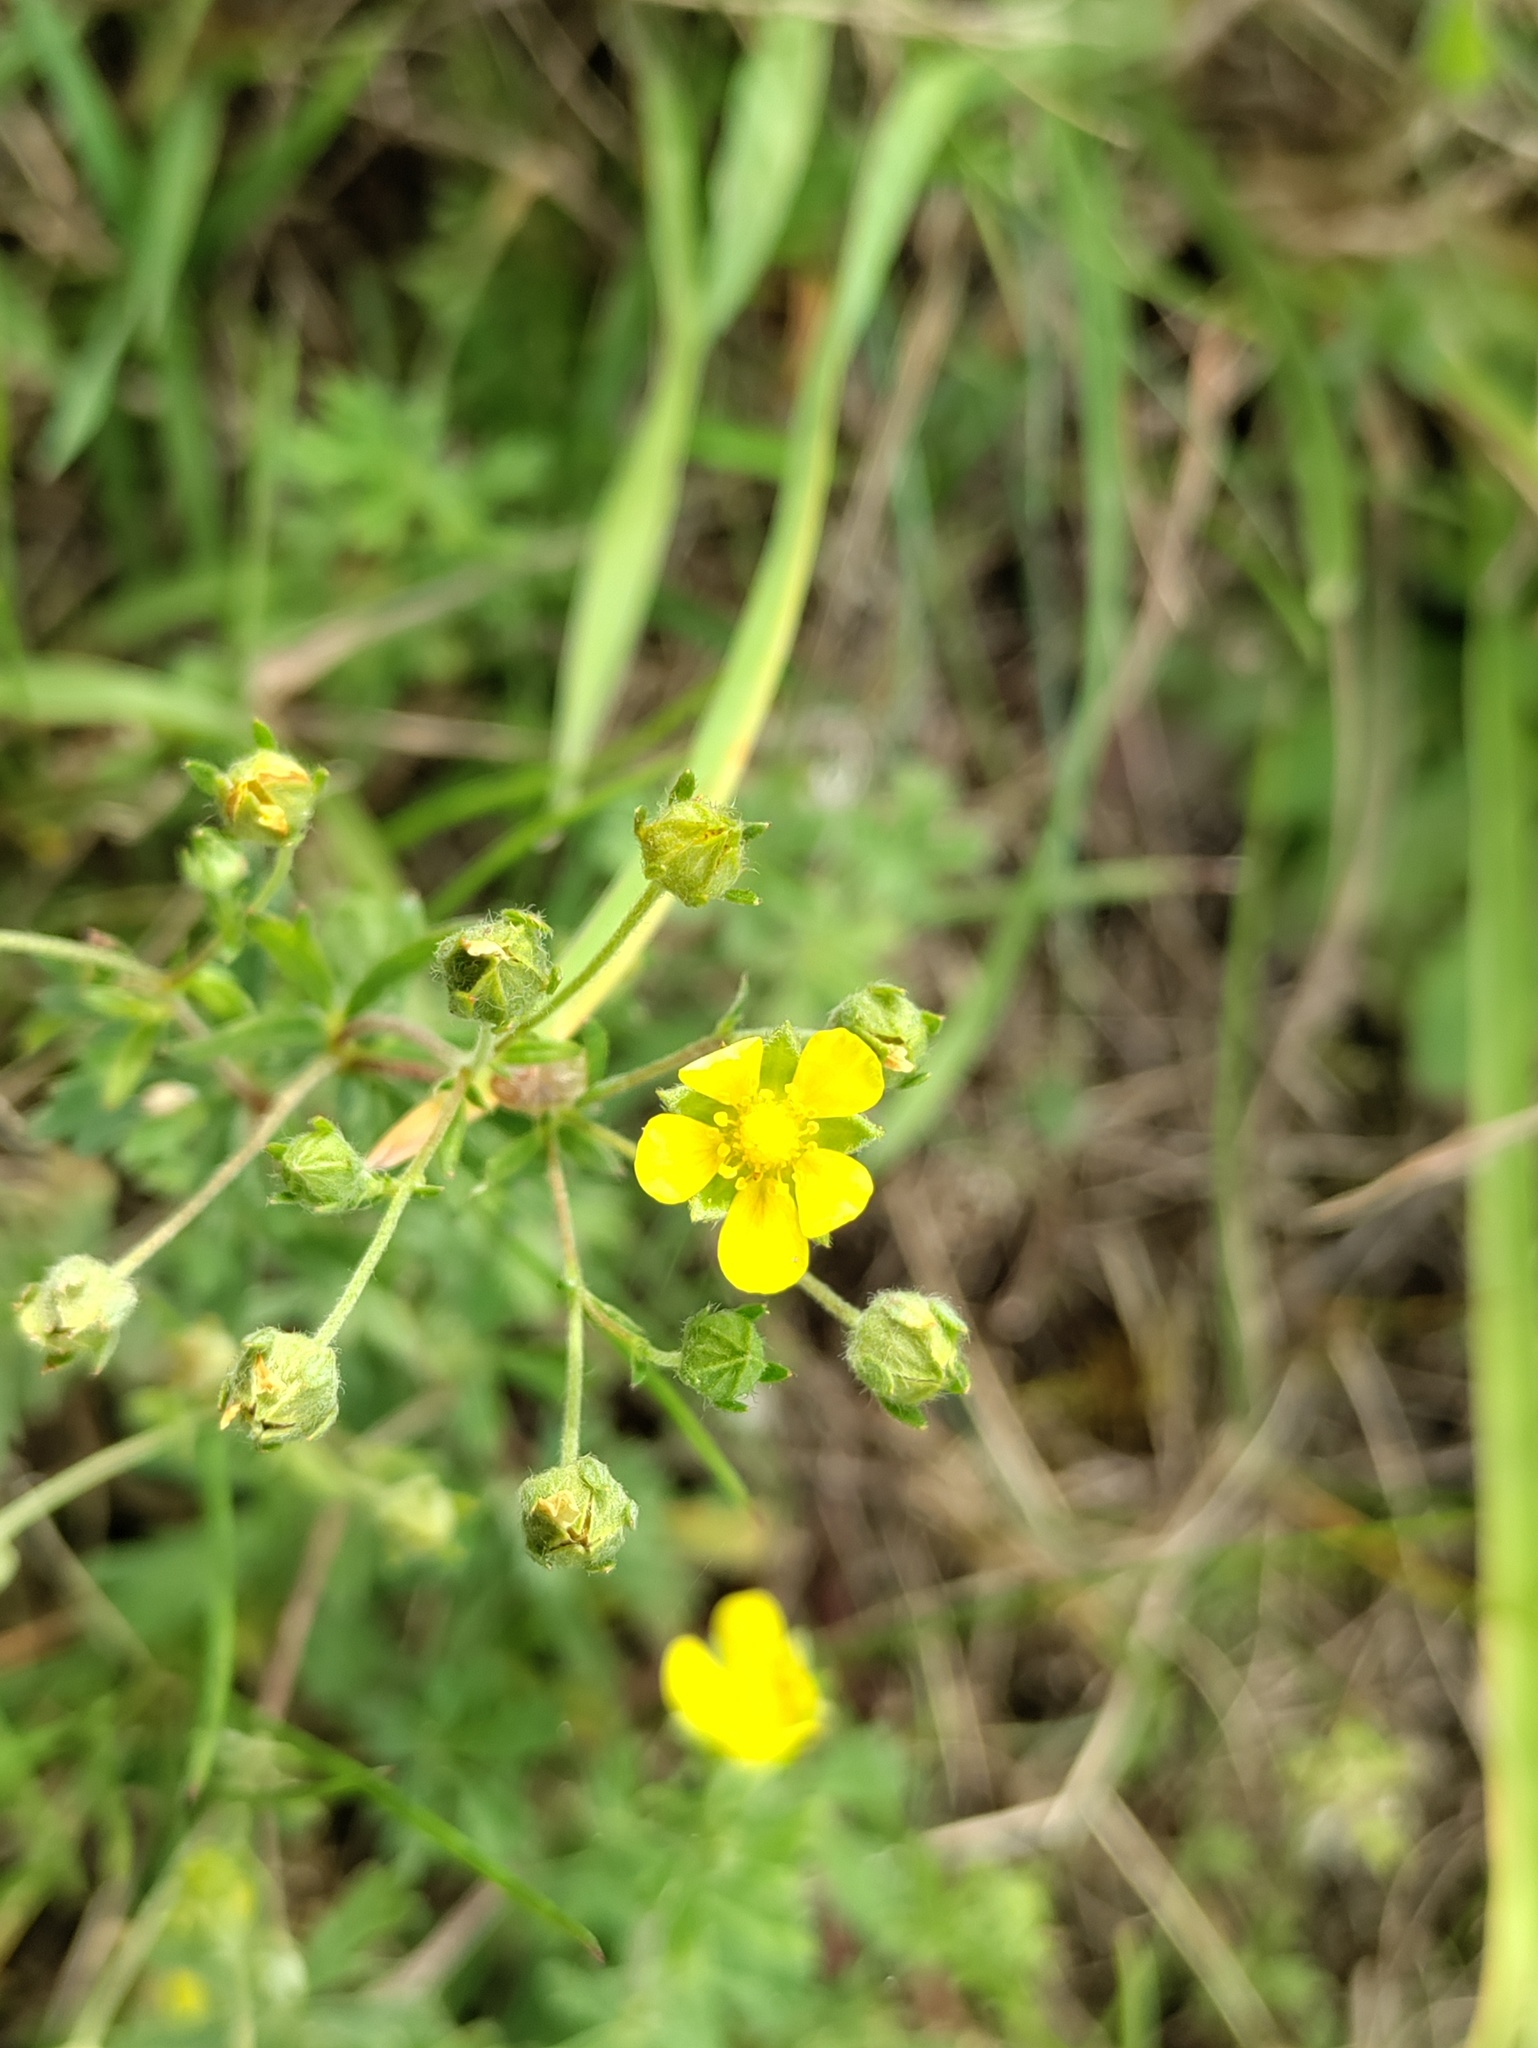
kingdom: Plantae
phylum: Tracheophyta
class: Magnoliopsida
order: Rosales
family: Rosaceae
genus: Potentilla
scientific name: Potentilla argentea
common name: Hoary cinquefoil
